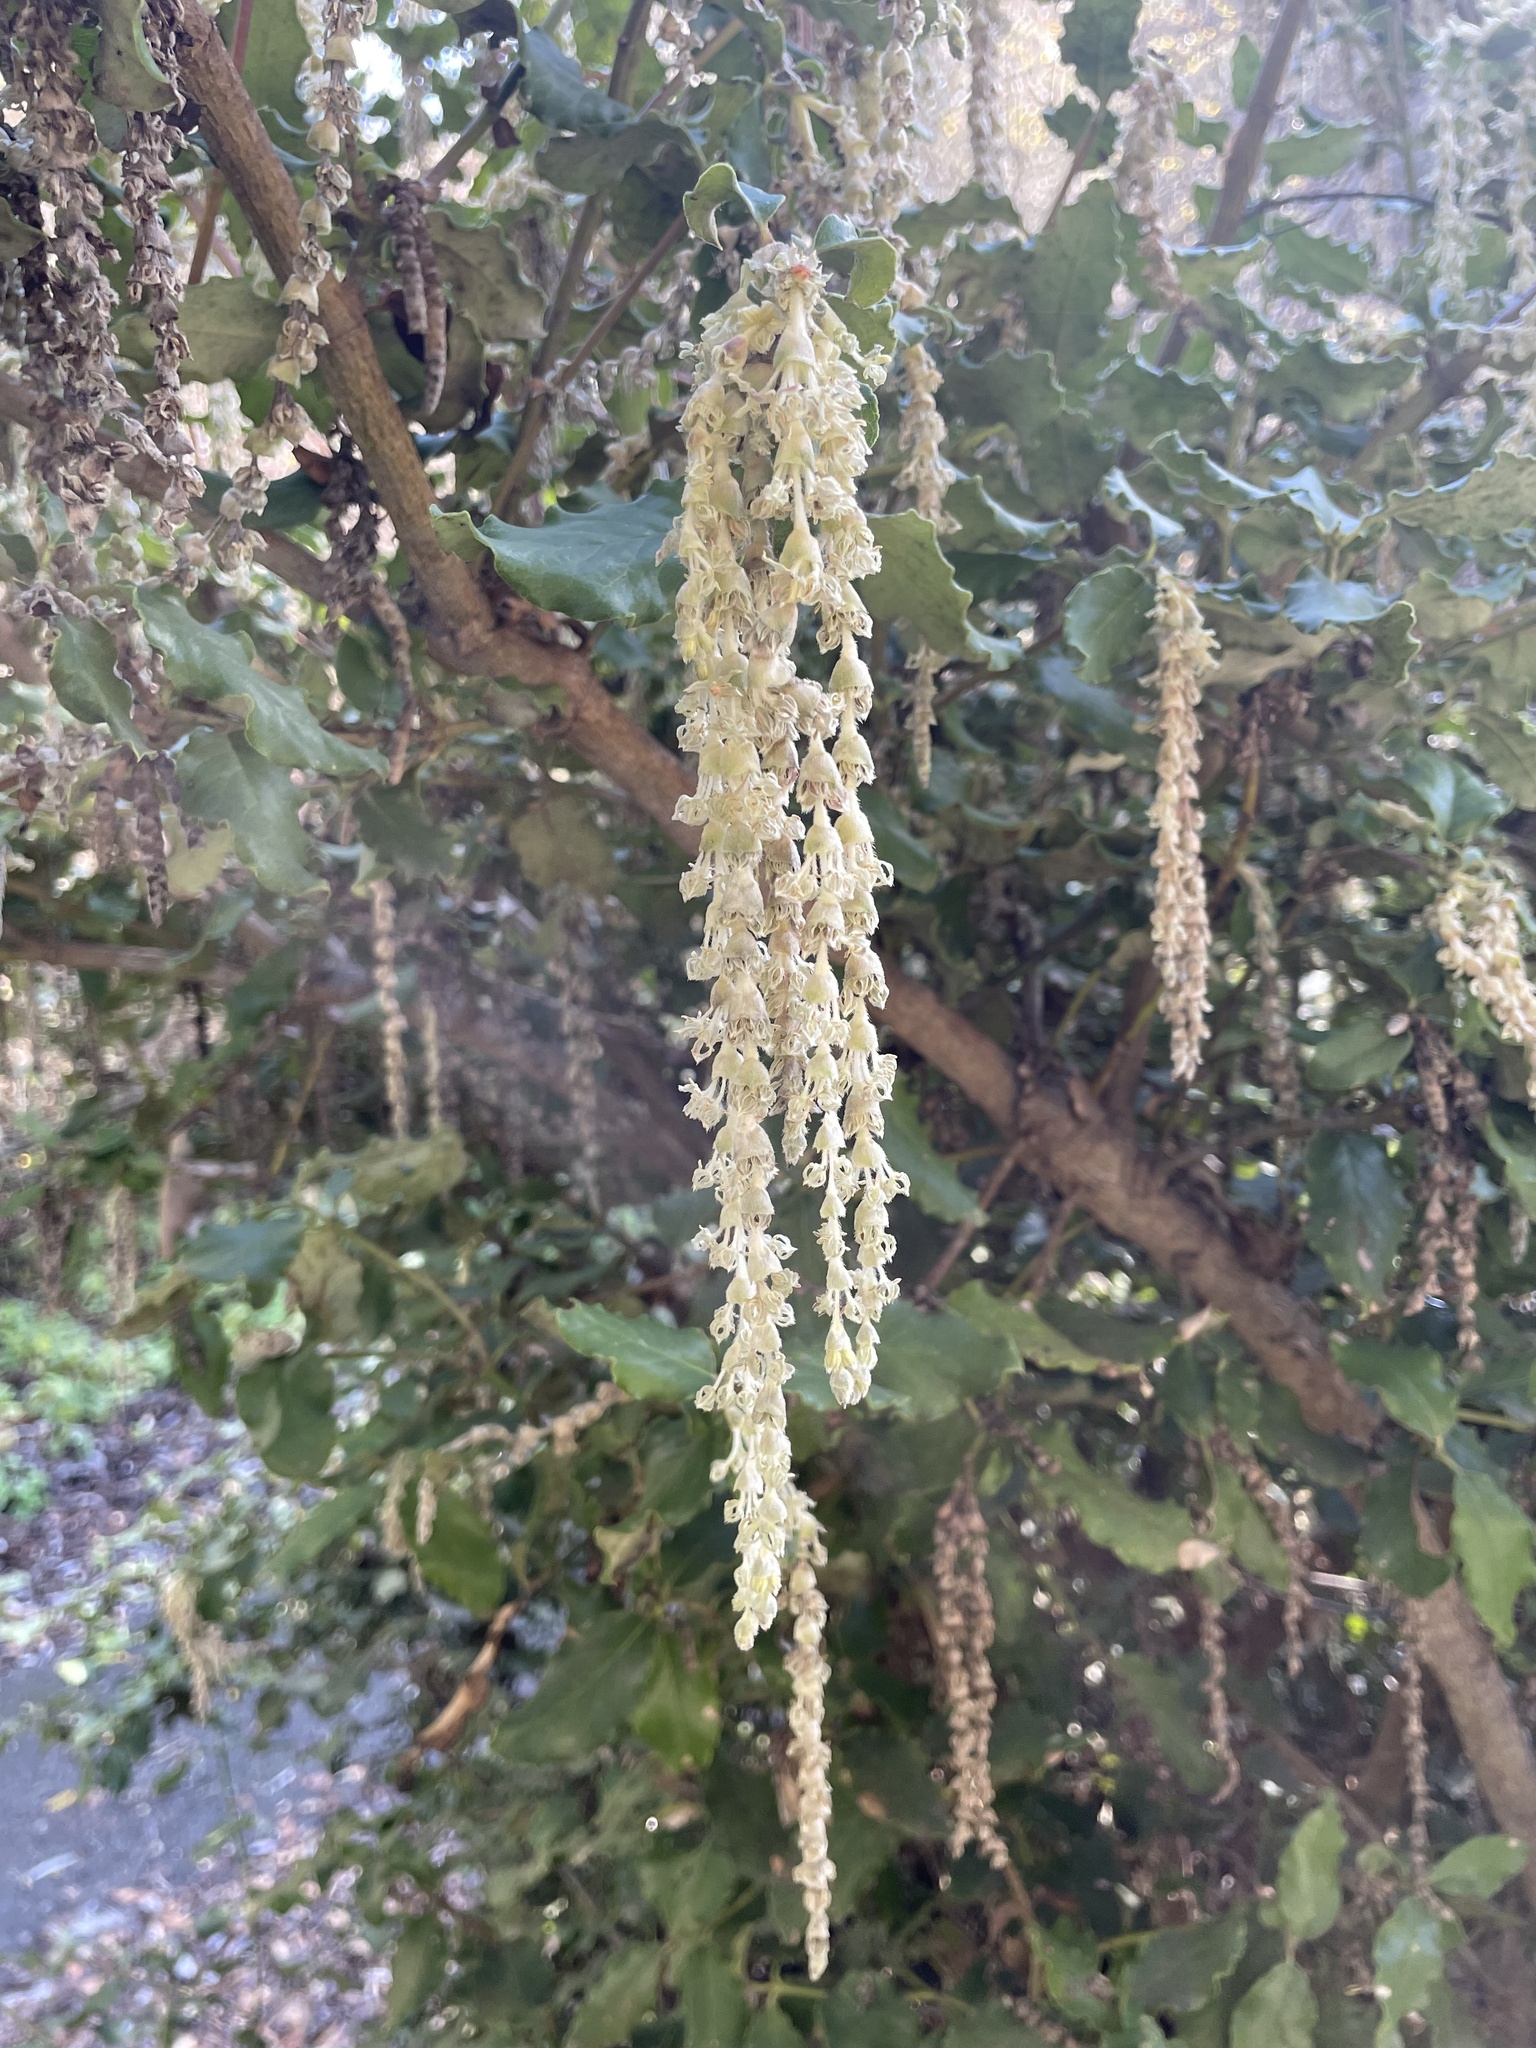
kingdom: Plantae
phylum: Tracheophyta
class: Magnoliopsida
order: Garryales
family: Garryaceae
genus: Garrya
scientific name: Garrya elliptica
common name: Silk-tassel
